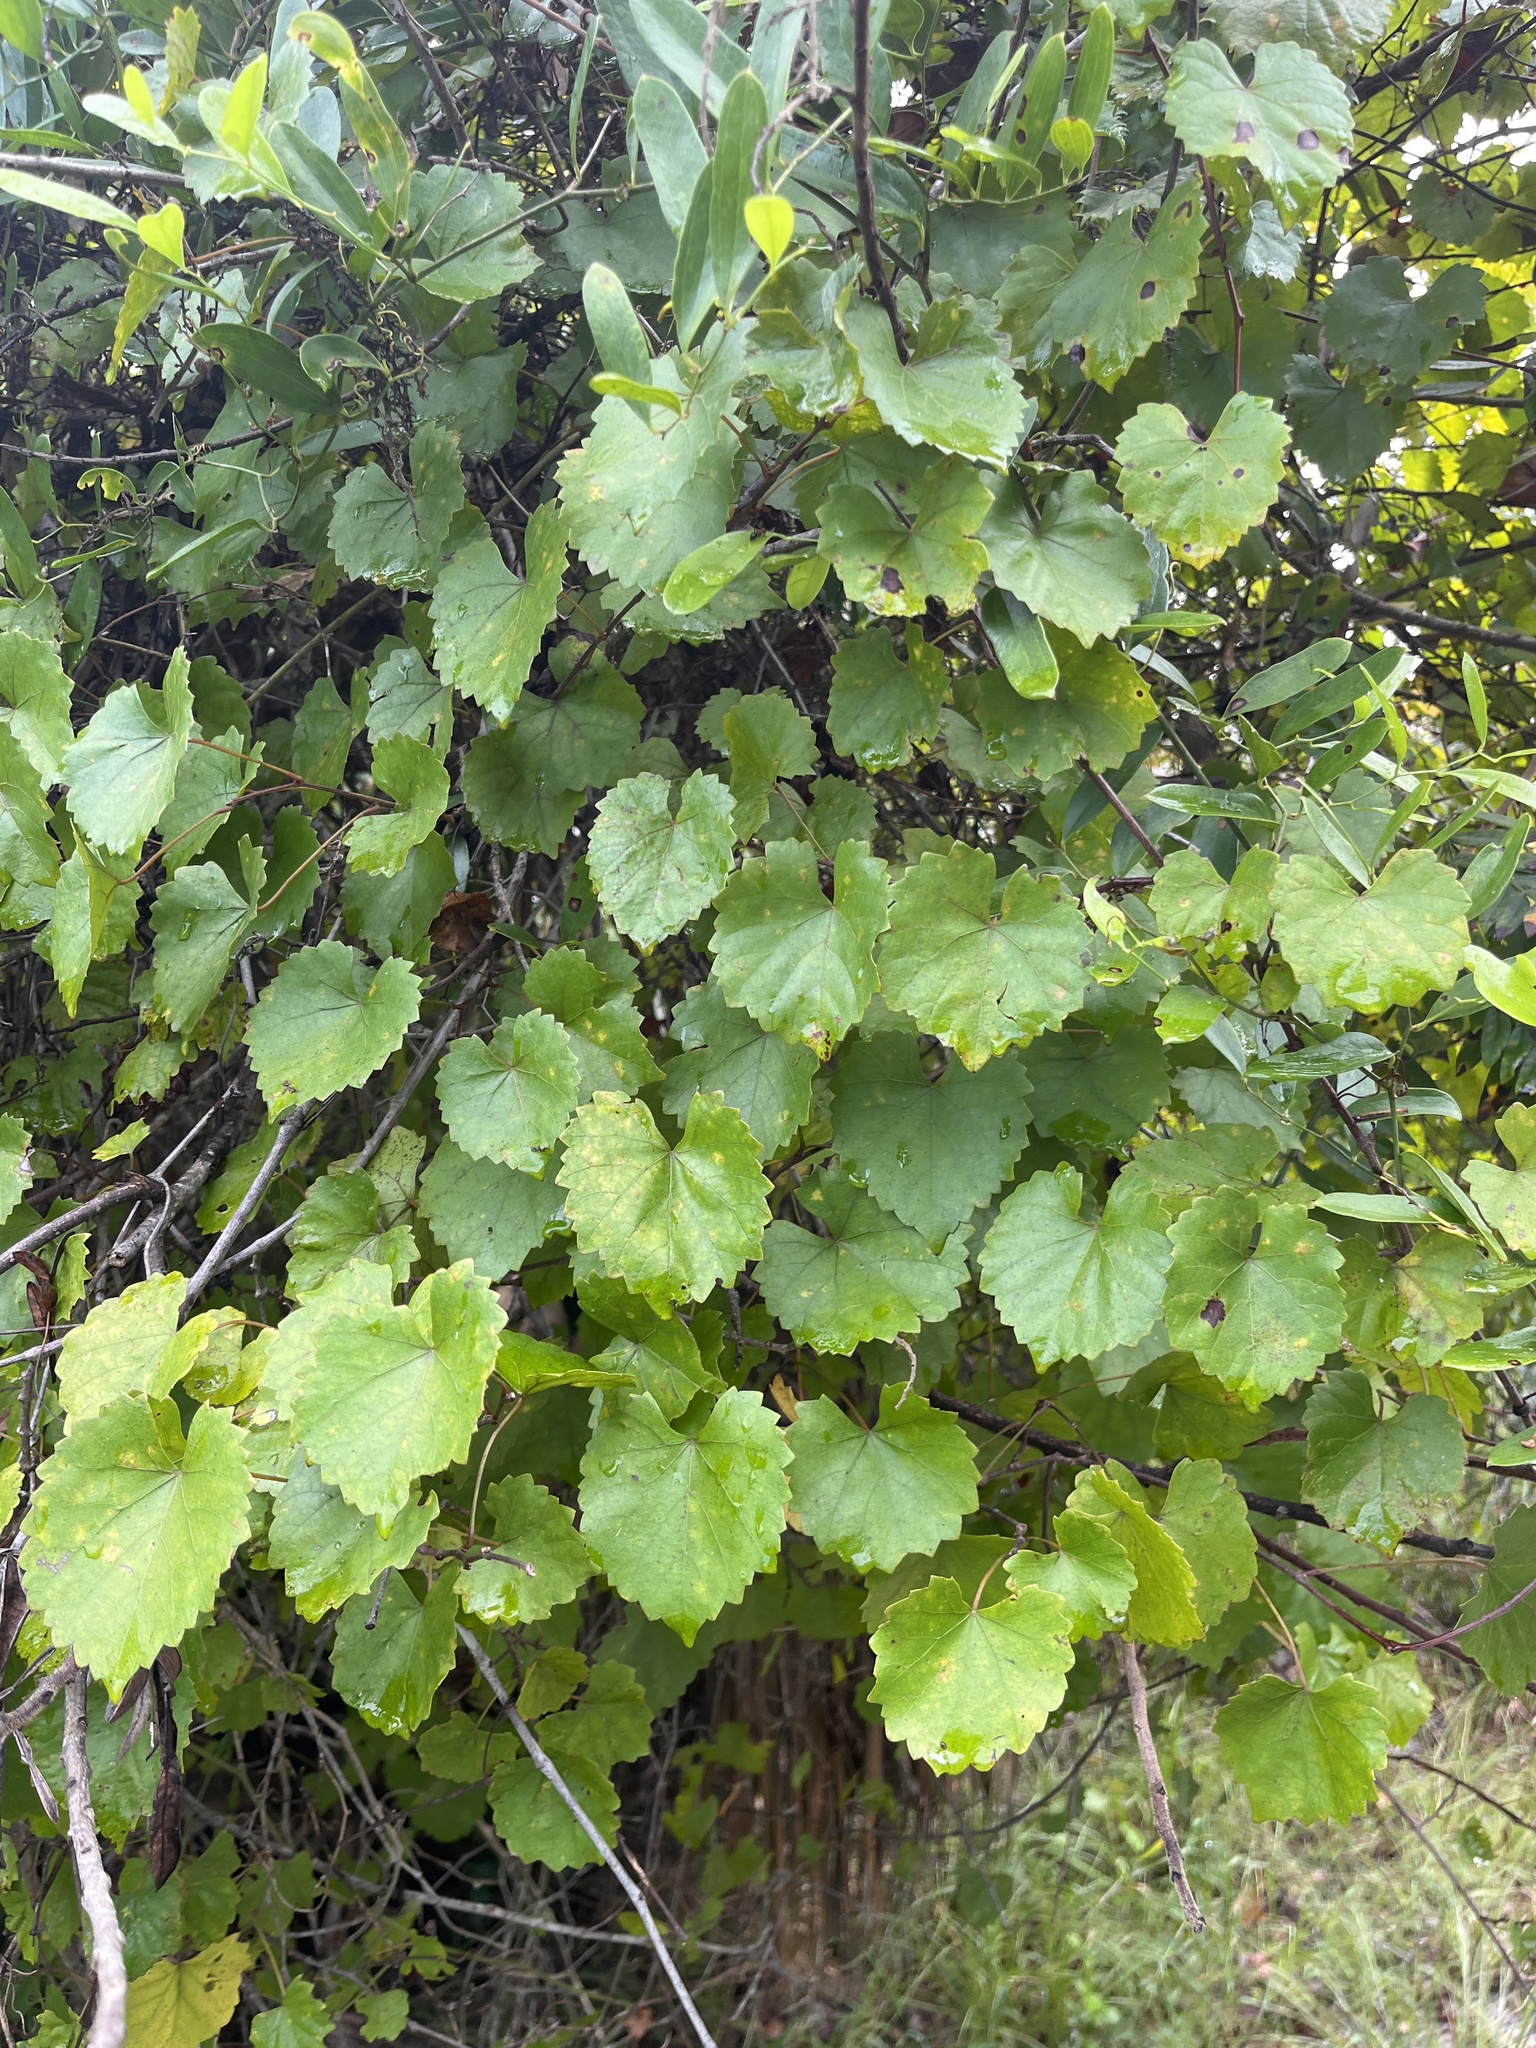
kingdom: Plantae
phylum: Tracheophyta
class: Magnoliopsida
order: Vitales
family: Vitaceae
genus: Vitis
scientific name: Vitis rotundifolia
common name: Muscadine grape
